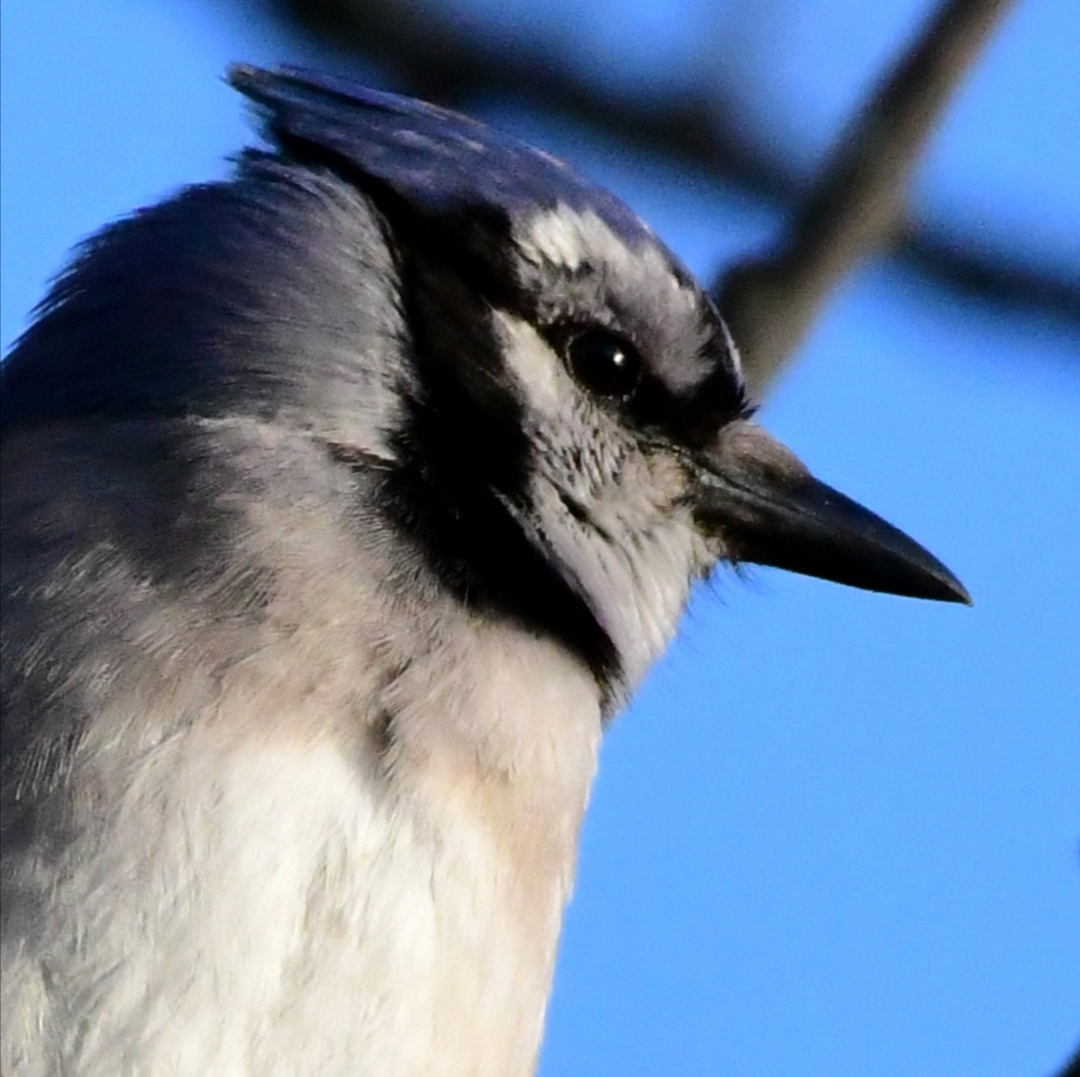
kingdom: Animalia
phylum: Chordata
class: Aves
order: Passeriformes
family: Corvidae
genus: Cyanocitta
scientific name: Cyanocitta cristata
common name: Blue jay
